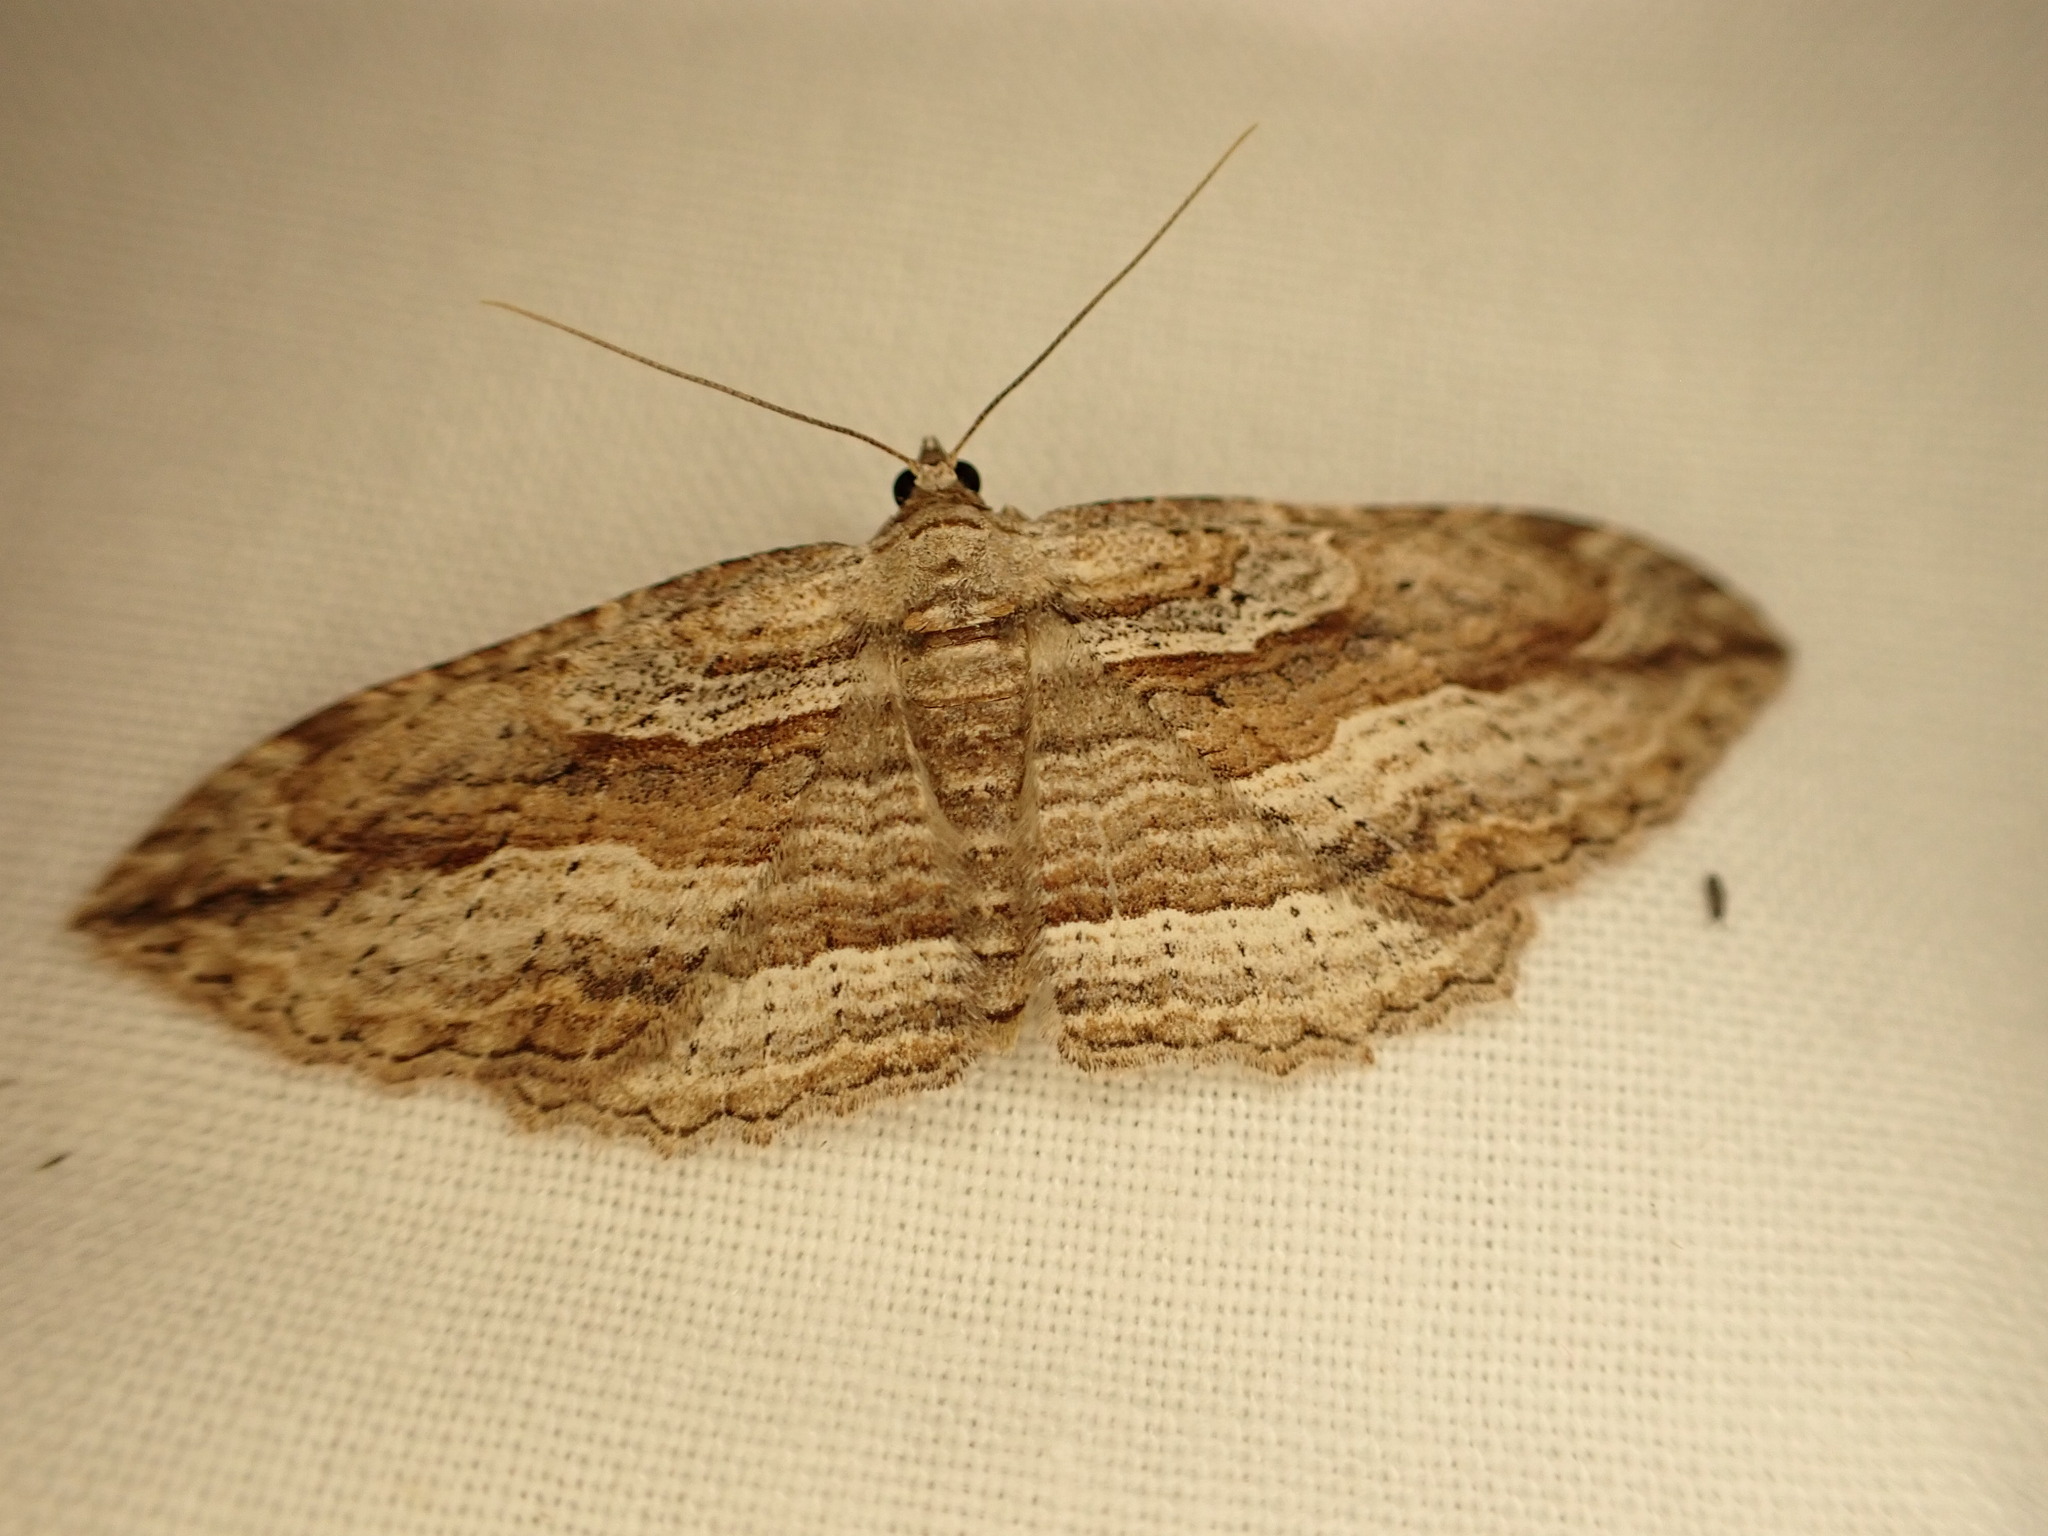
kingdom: Animalia
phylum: Arthropoda
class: Insecta
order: Lepidoptera
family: Geometridae
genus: Austrocidaria
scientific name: Austrocidaria gobiata
